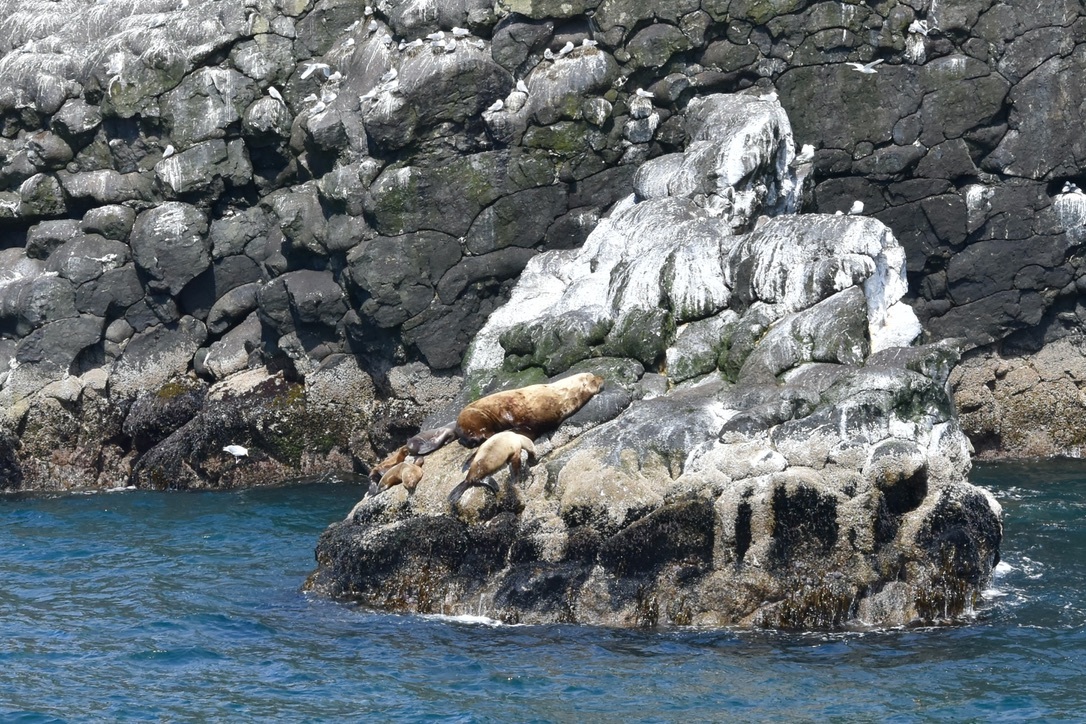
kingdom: Animalia
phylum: Chordata
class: Mammalia
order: Carnivora
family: Otariidae
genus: Eumetopias
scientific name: Eumetopias jubatus
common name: Steller sea lion
